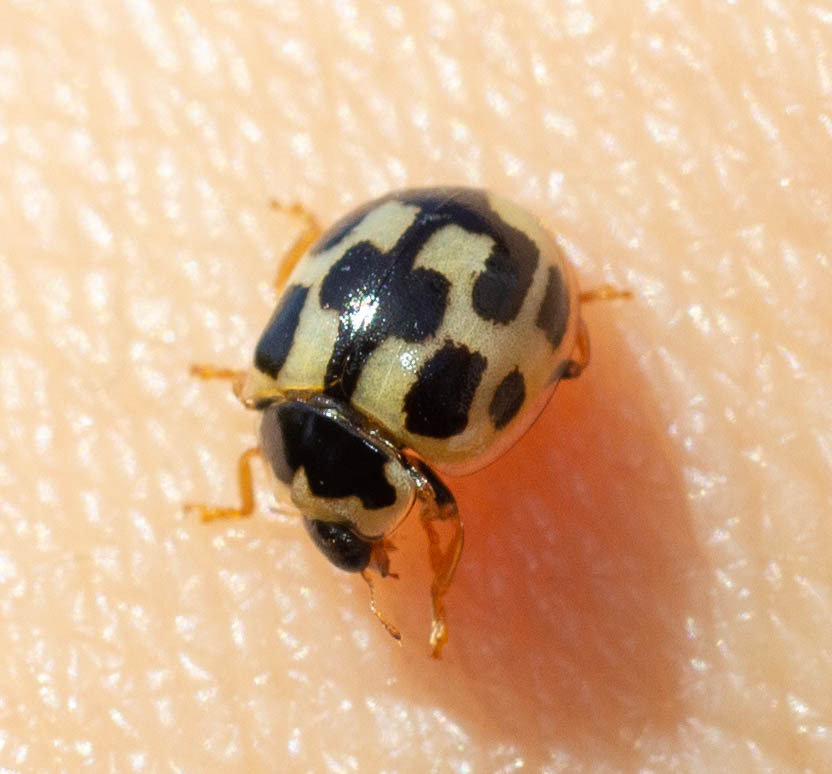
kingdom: Animalia
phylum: Arthropoda
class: Insecta
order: Coleoptera
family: Coccinellidae
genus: Propylaea
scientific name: Propylaea quatuordecimpunctata
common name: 14-spotted ladybird beetle
